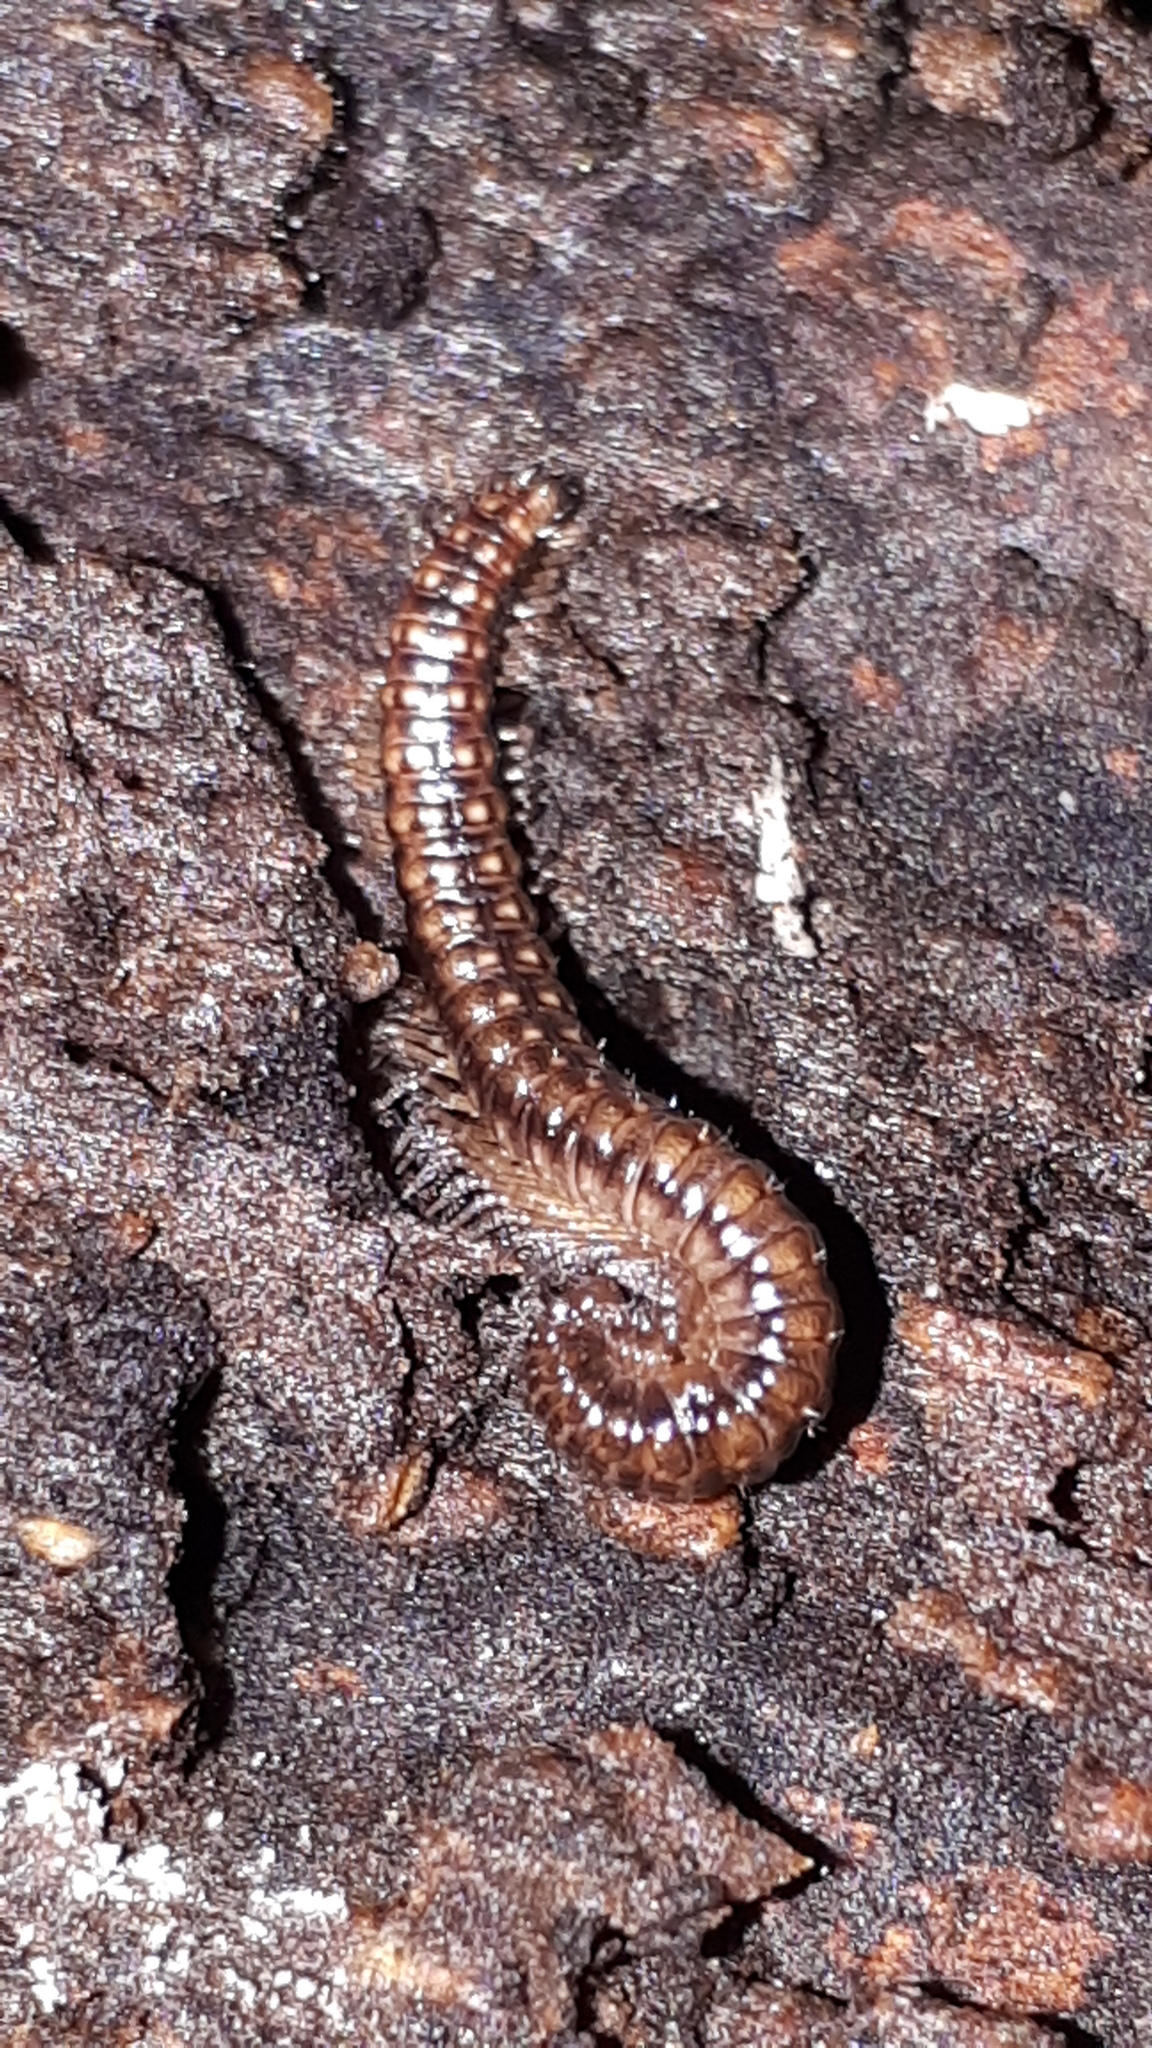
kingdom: Animalia
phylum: Arthropoda
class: Diplopoda
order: Chordeumatida
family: Craspedosomatidae
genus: Craspedosoma
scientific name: Craspedosoma rawlinsii
